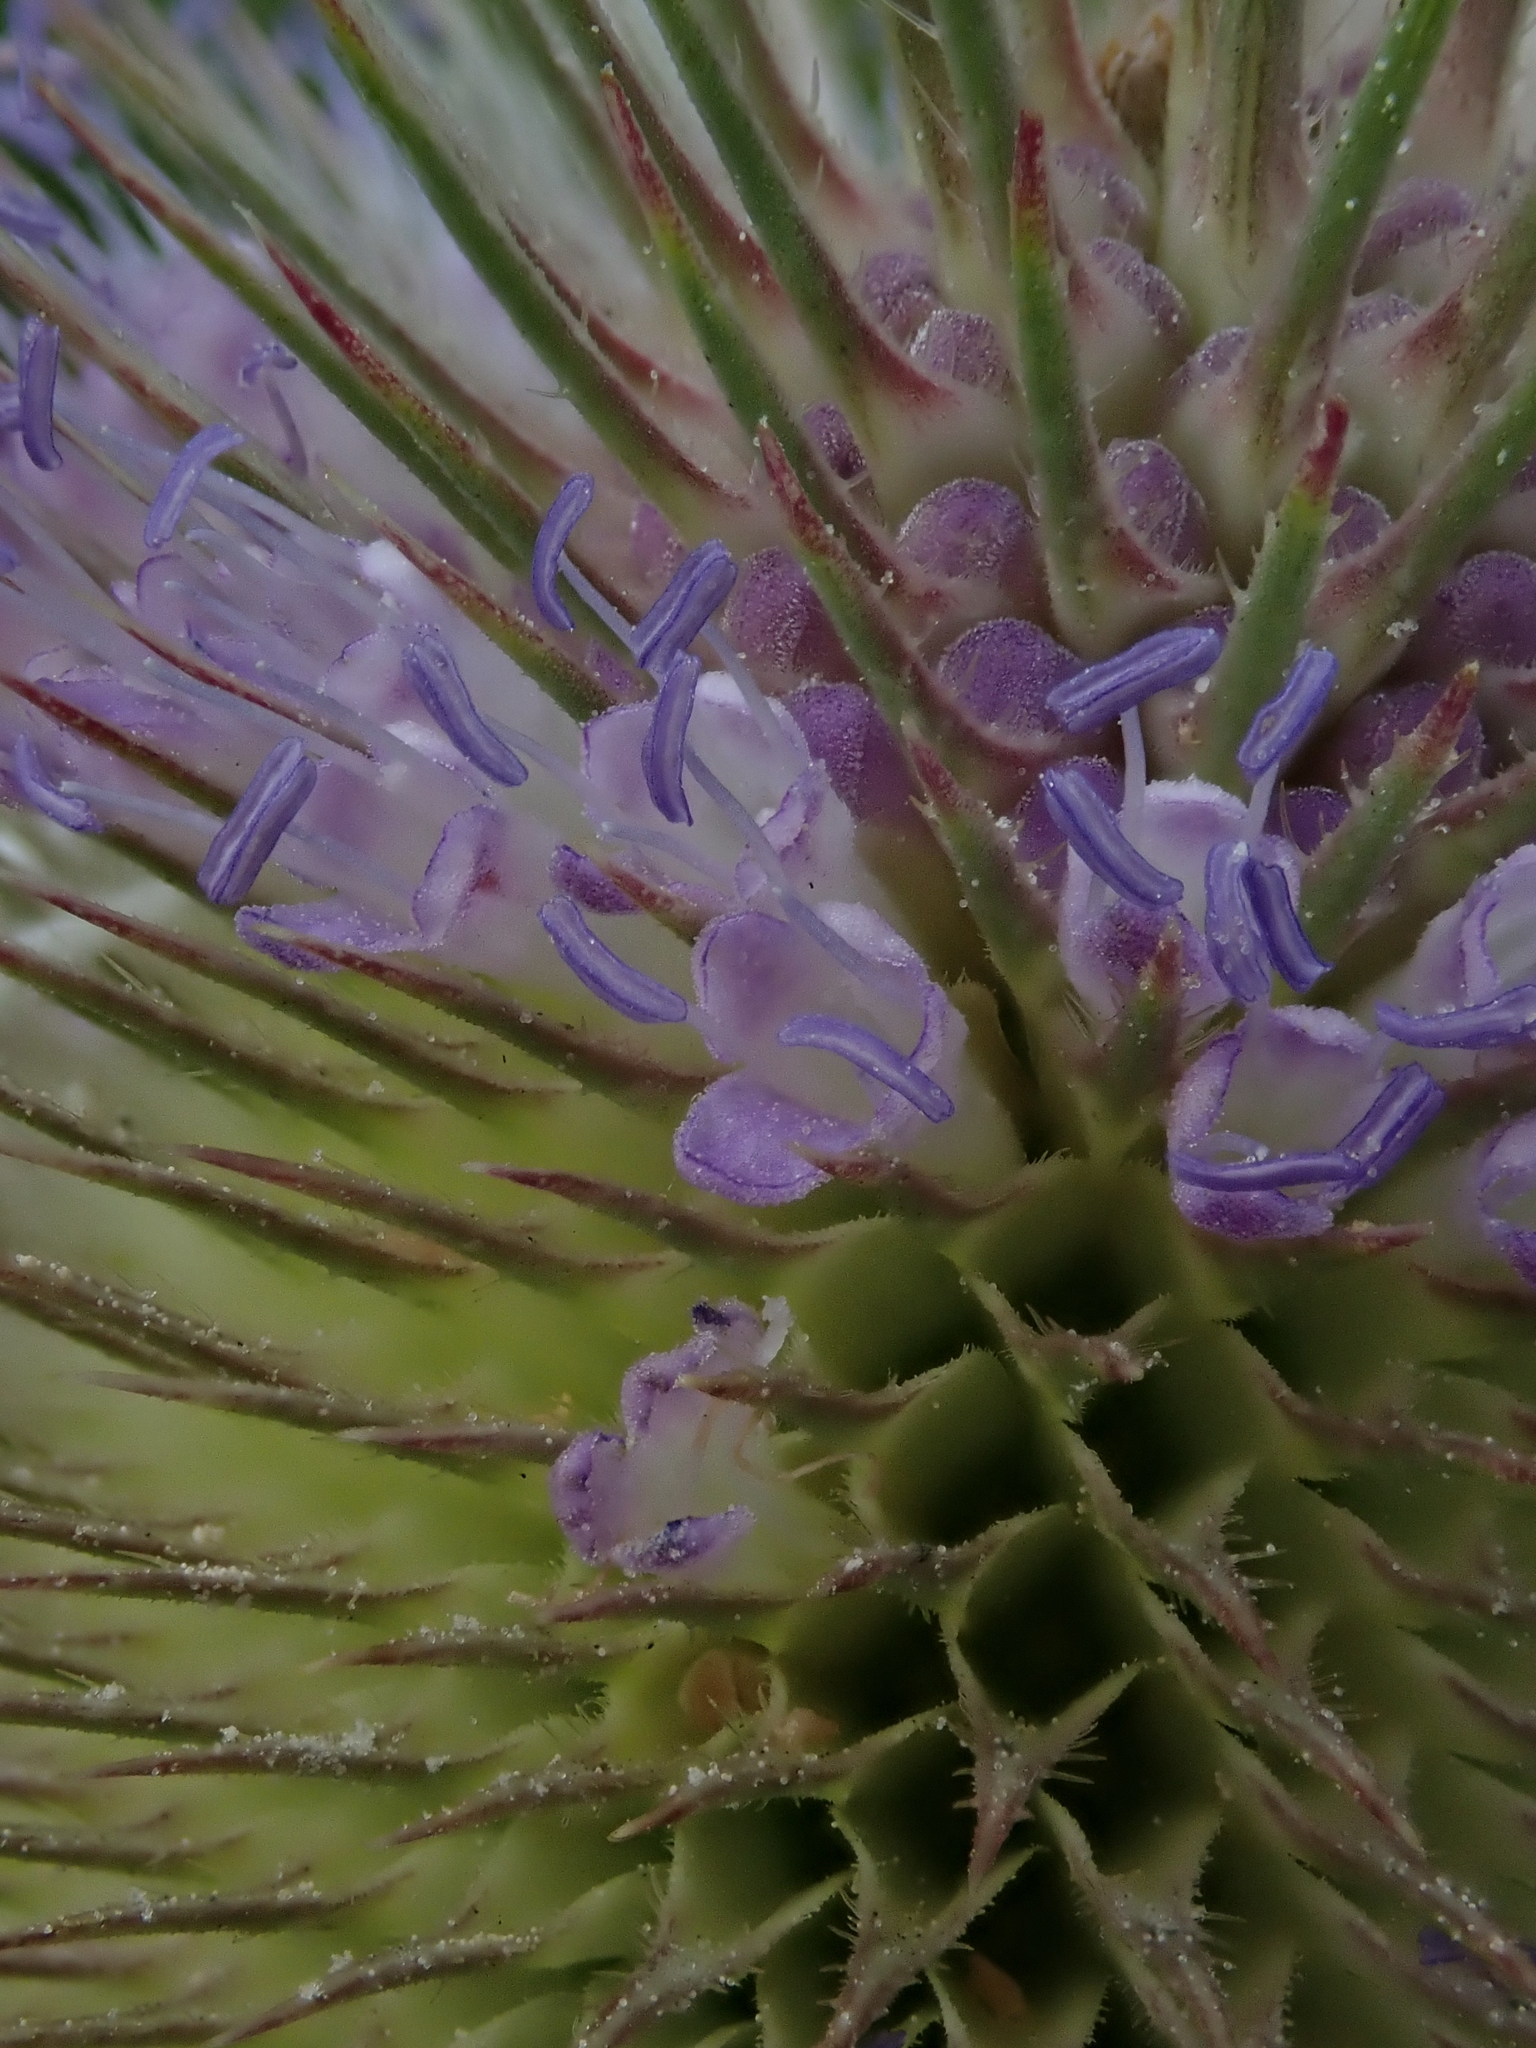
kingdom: Plantae
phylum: Tracheophyta
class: Magnoliopsida
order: Dipsacales
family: Caprifoliaceae
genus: Dipsacus
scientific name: Dipsacus fullonum
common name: Teasel
